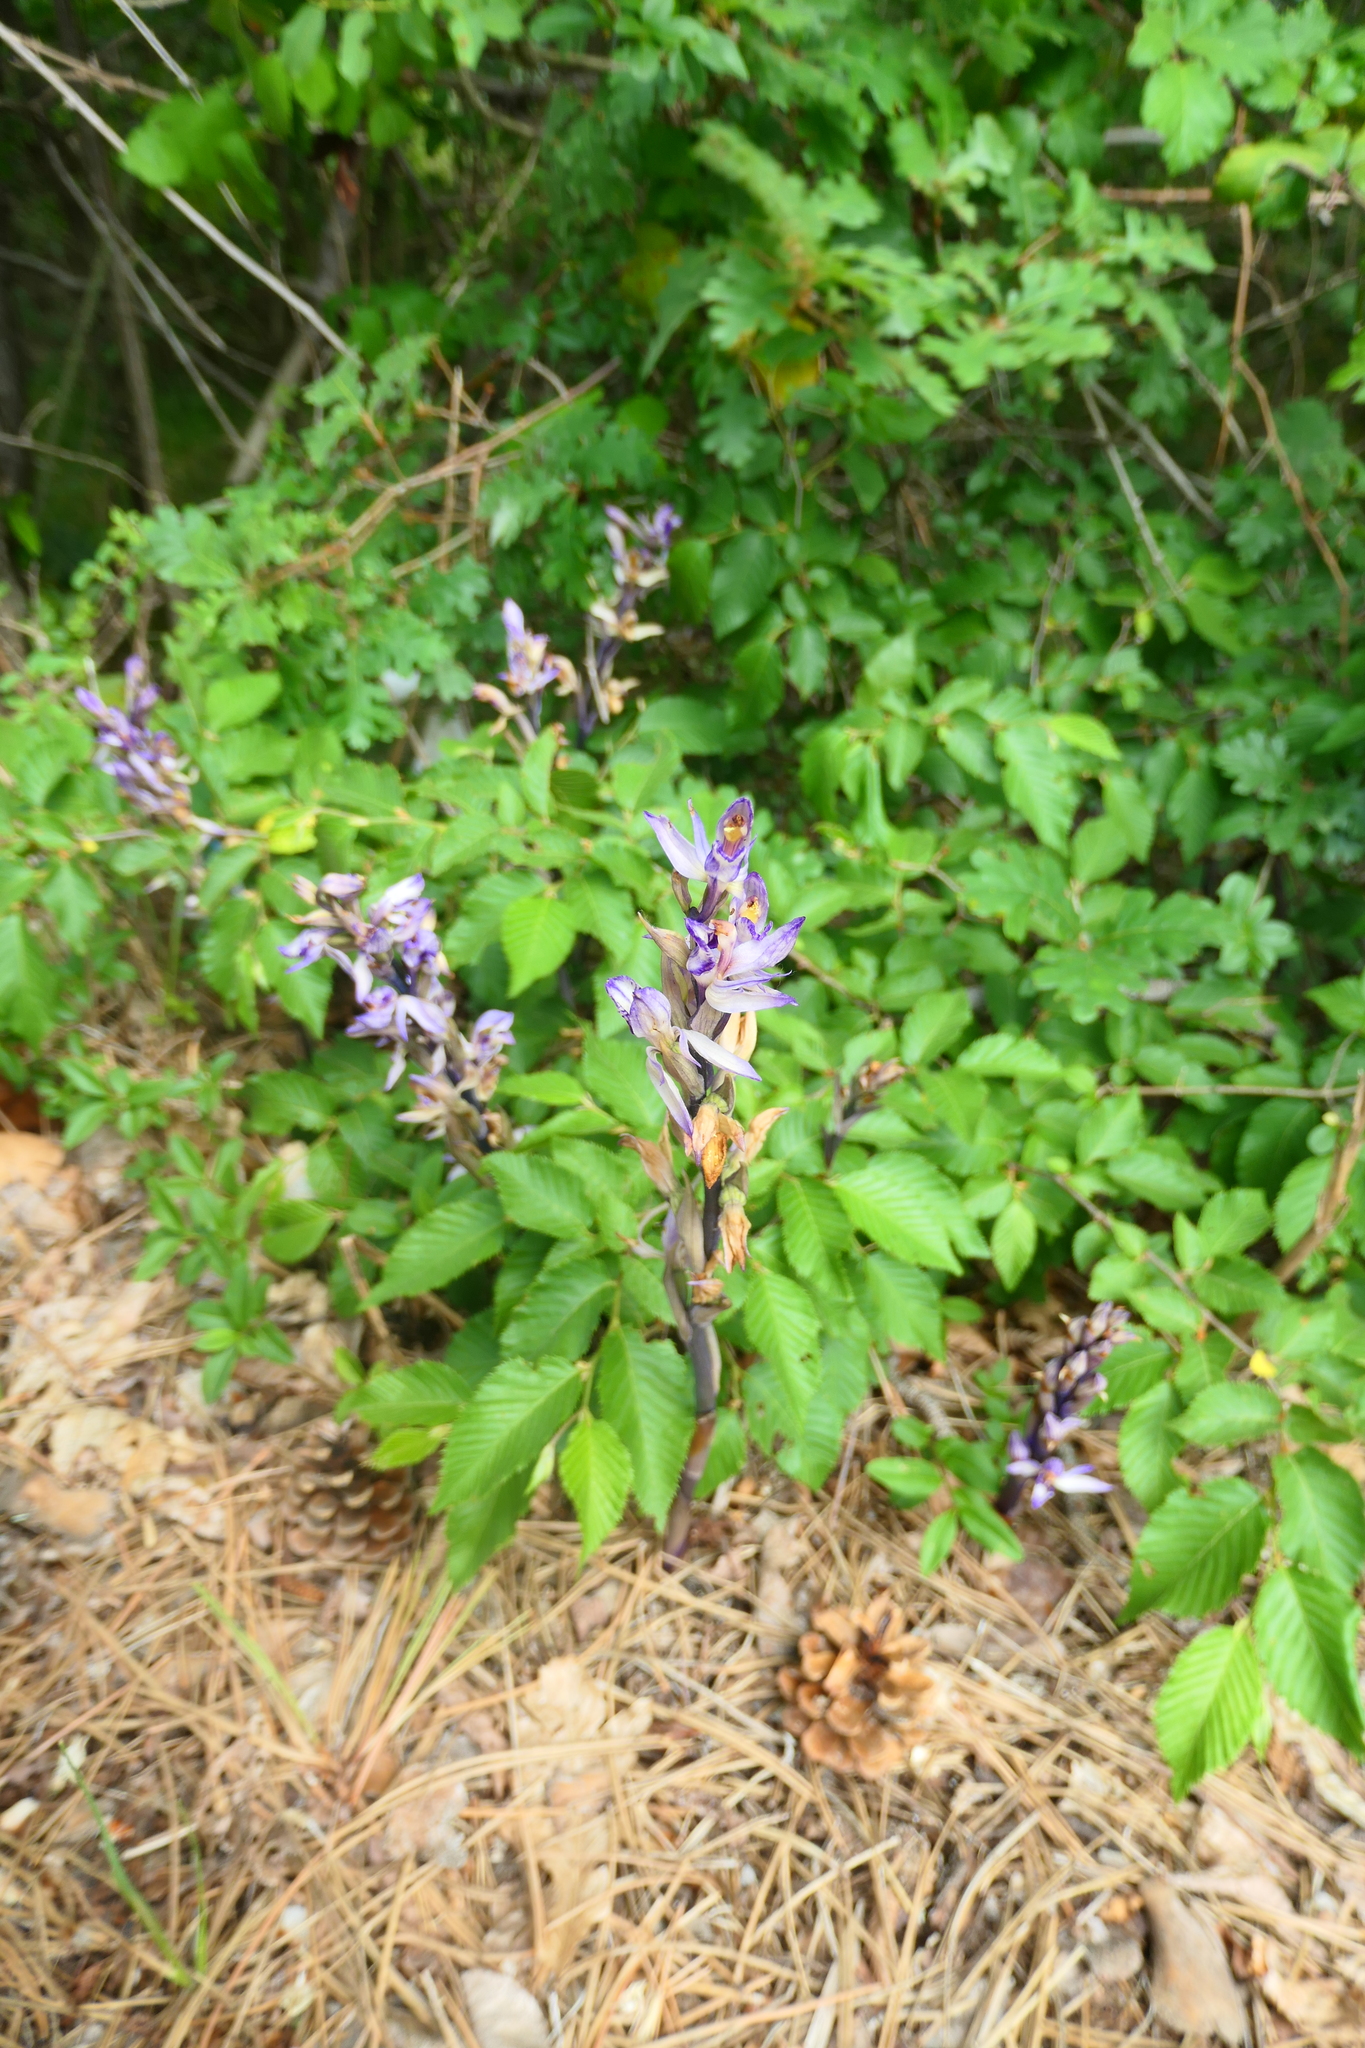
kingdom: Plantae
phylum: Tracheophyta
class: Liliopsida
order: Asparagales
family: Orchidaceae
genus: Limodorum
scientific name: Limodorum abortivum
